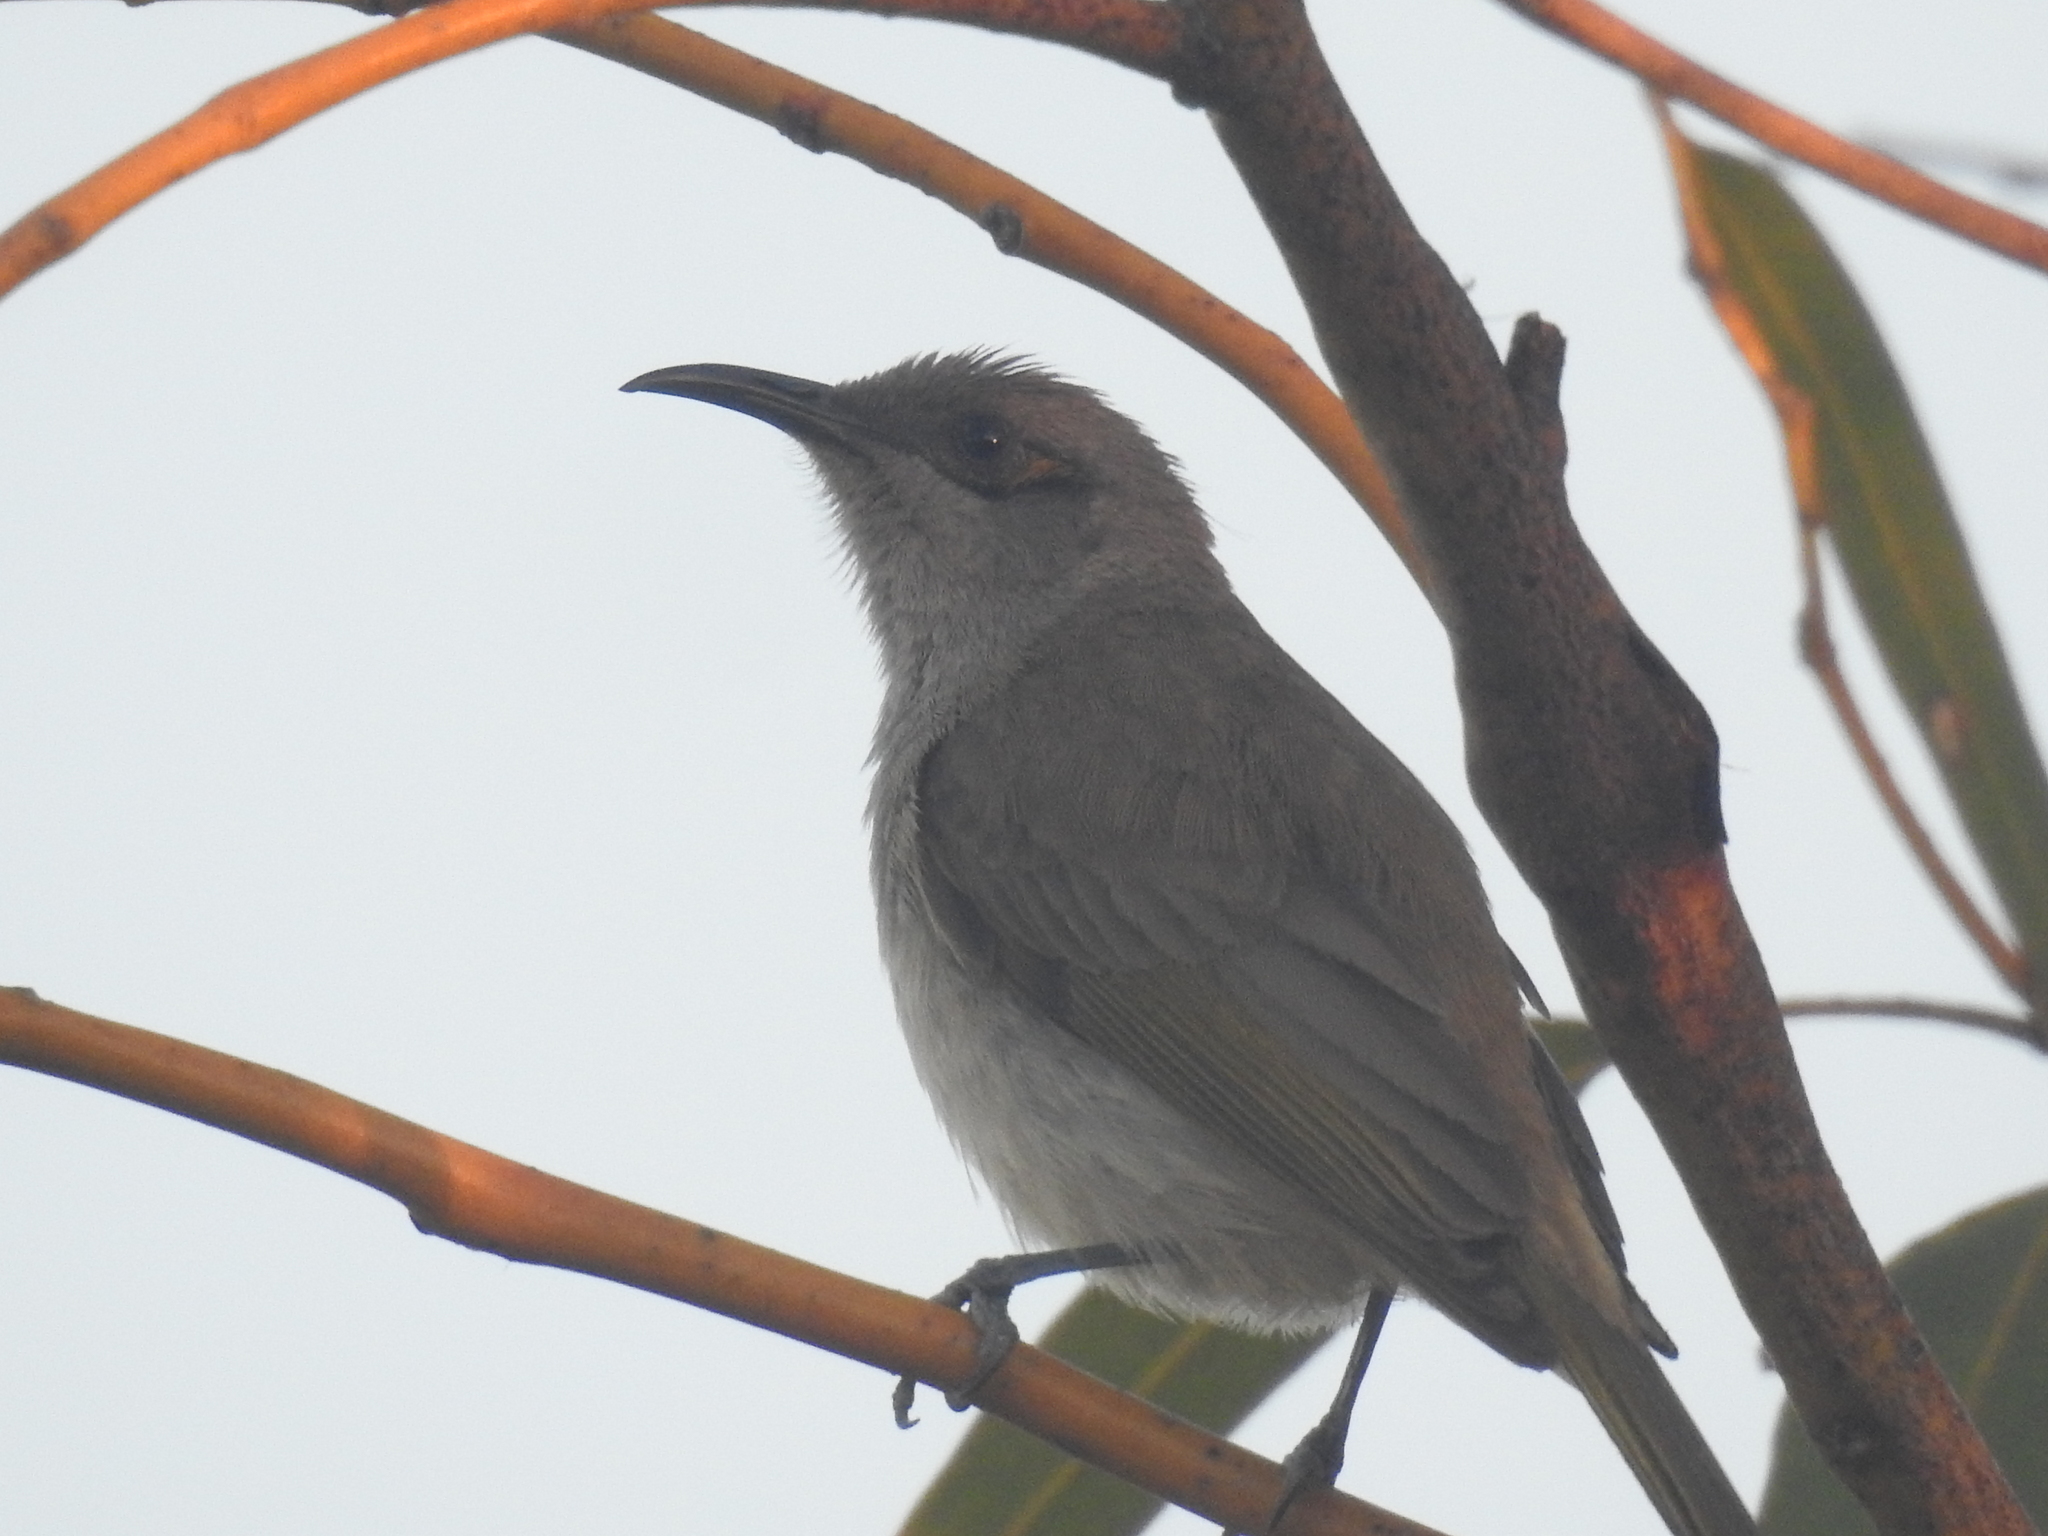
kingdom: Animalia
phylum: Chordata
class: Aves
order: Passeriformes
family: Meliphagidae
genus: Lichmera
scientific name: Lichmera indistincta
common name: Brown honeyeater
